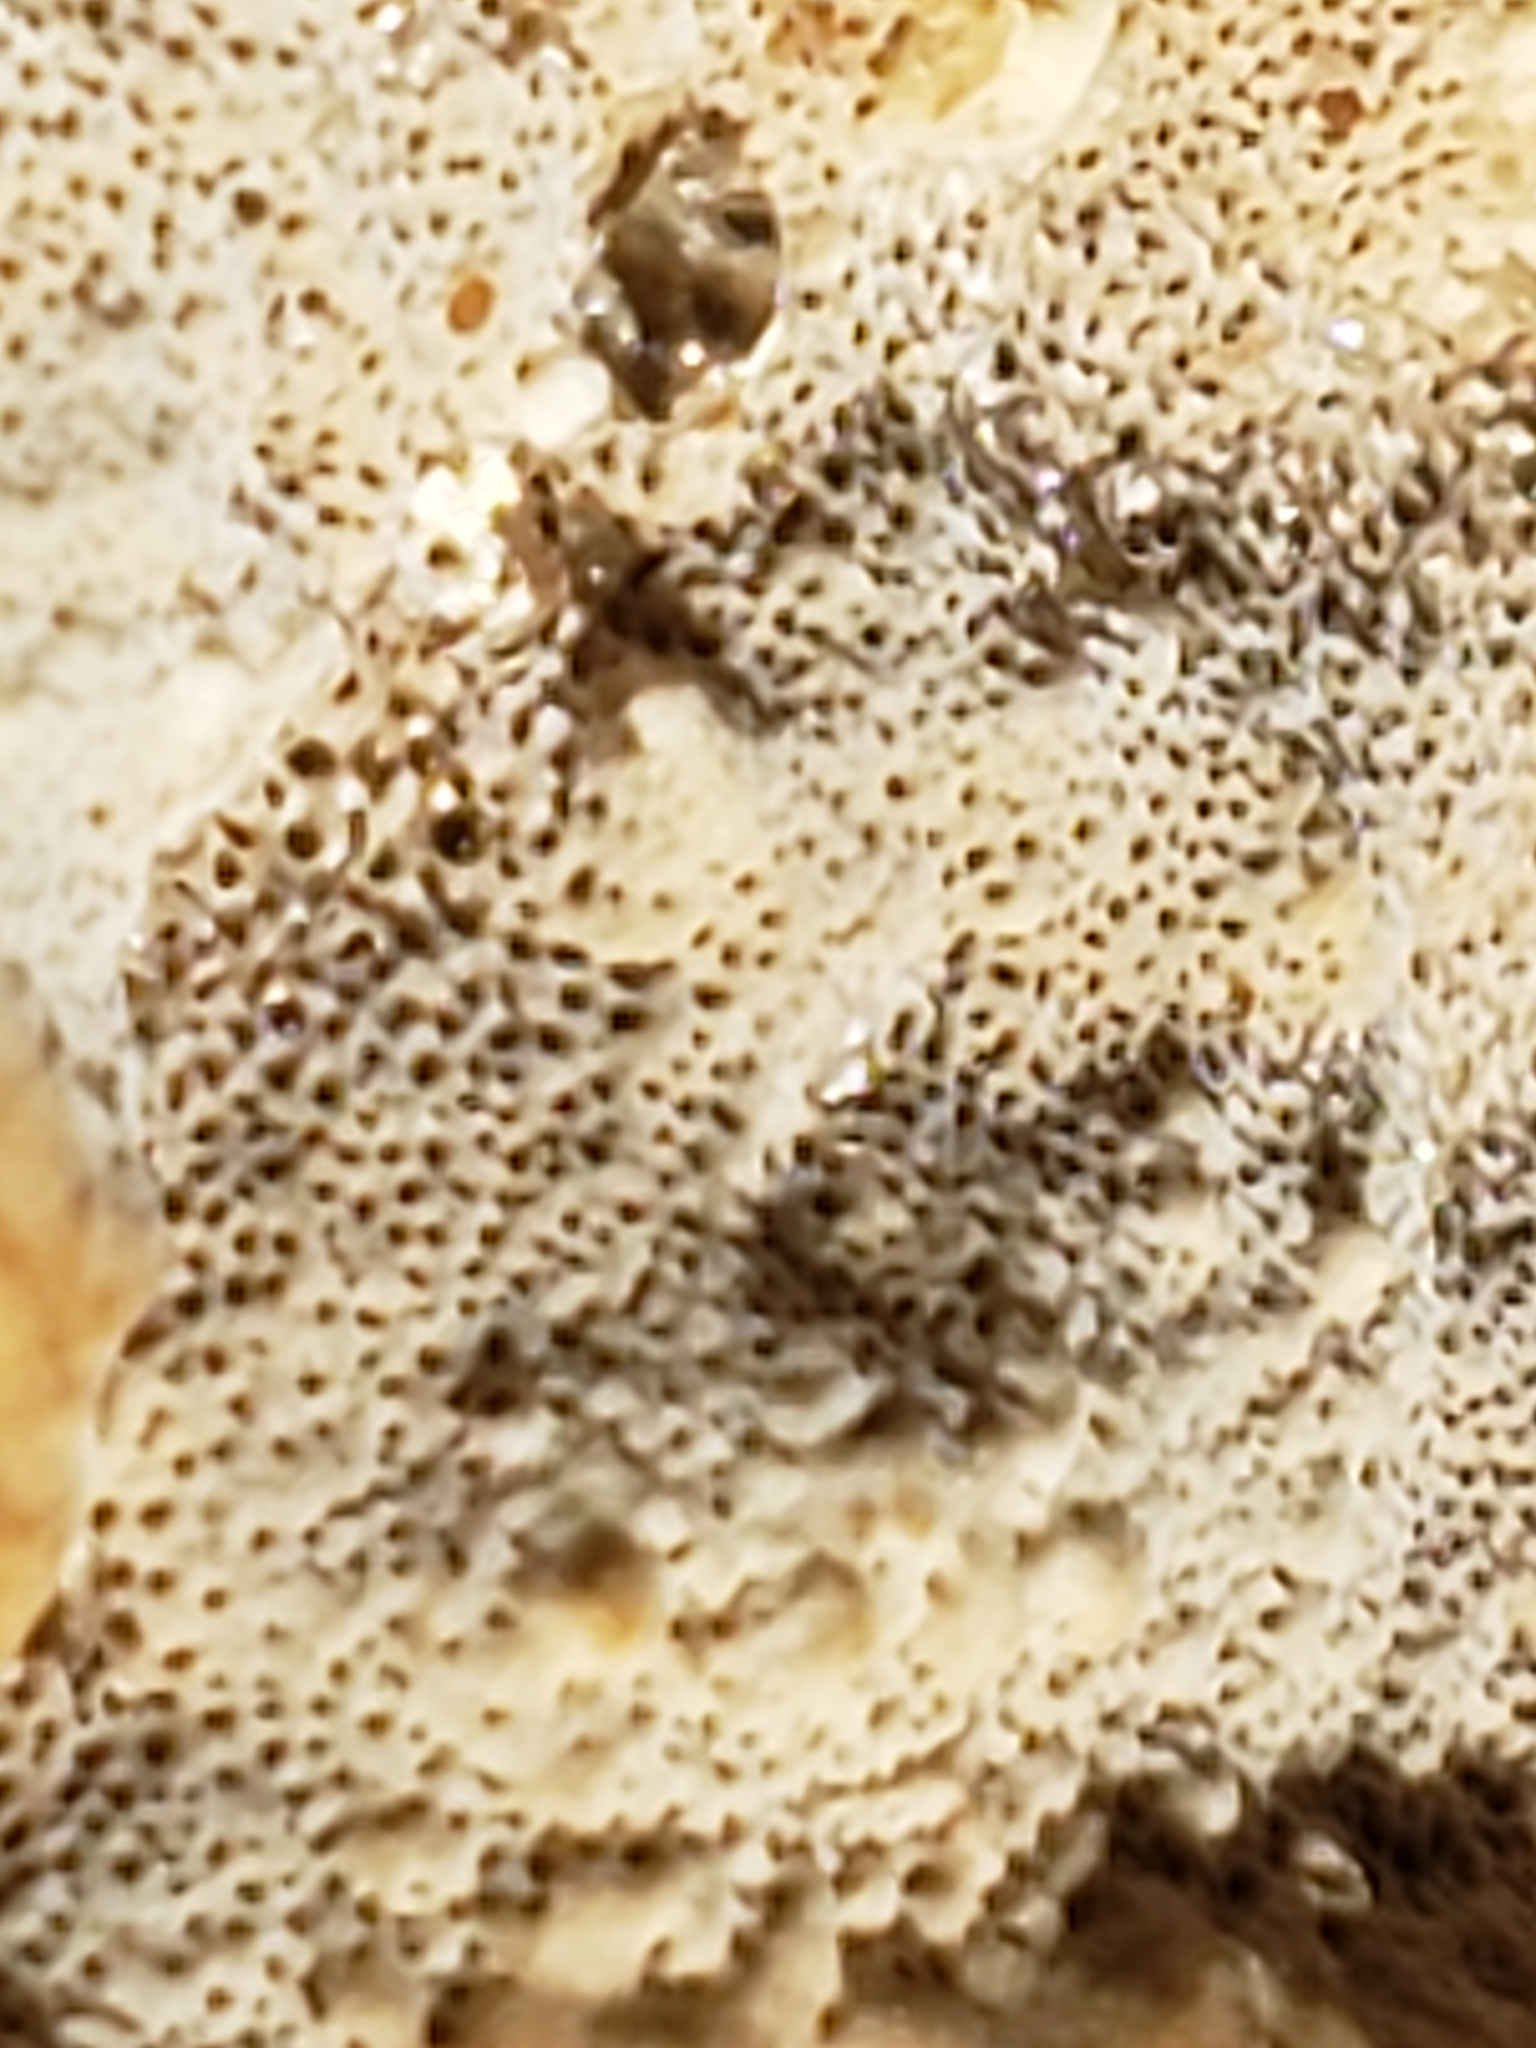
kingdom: Fungi
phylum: Basidiomycota
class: Agaricomycetes
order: Hymenochaetales
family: Hymenochaetaceae
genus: Pseudoinonotus
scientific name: Pseudoinonotus dryadeus
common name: Oak bracket
